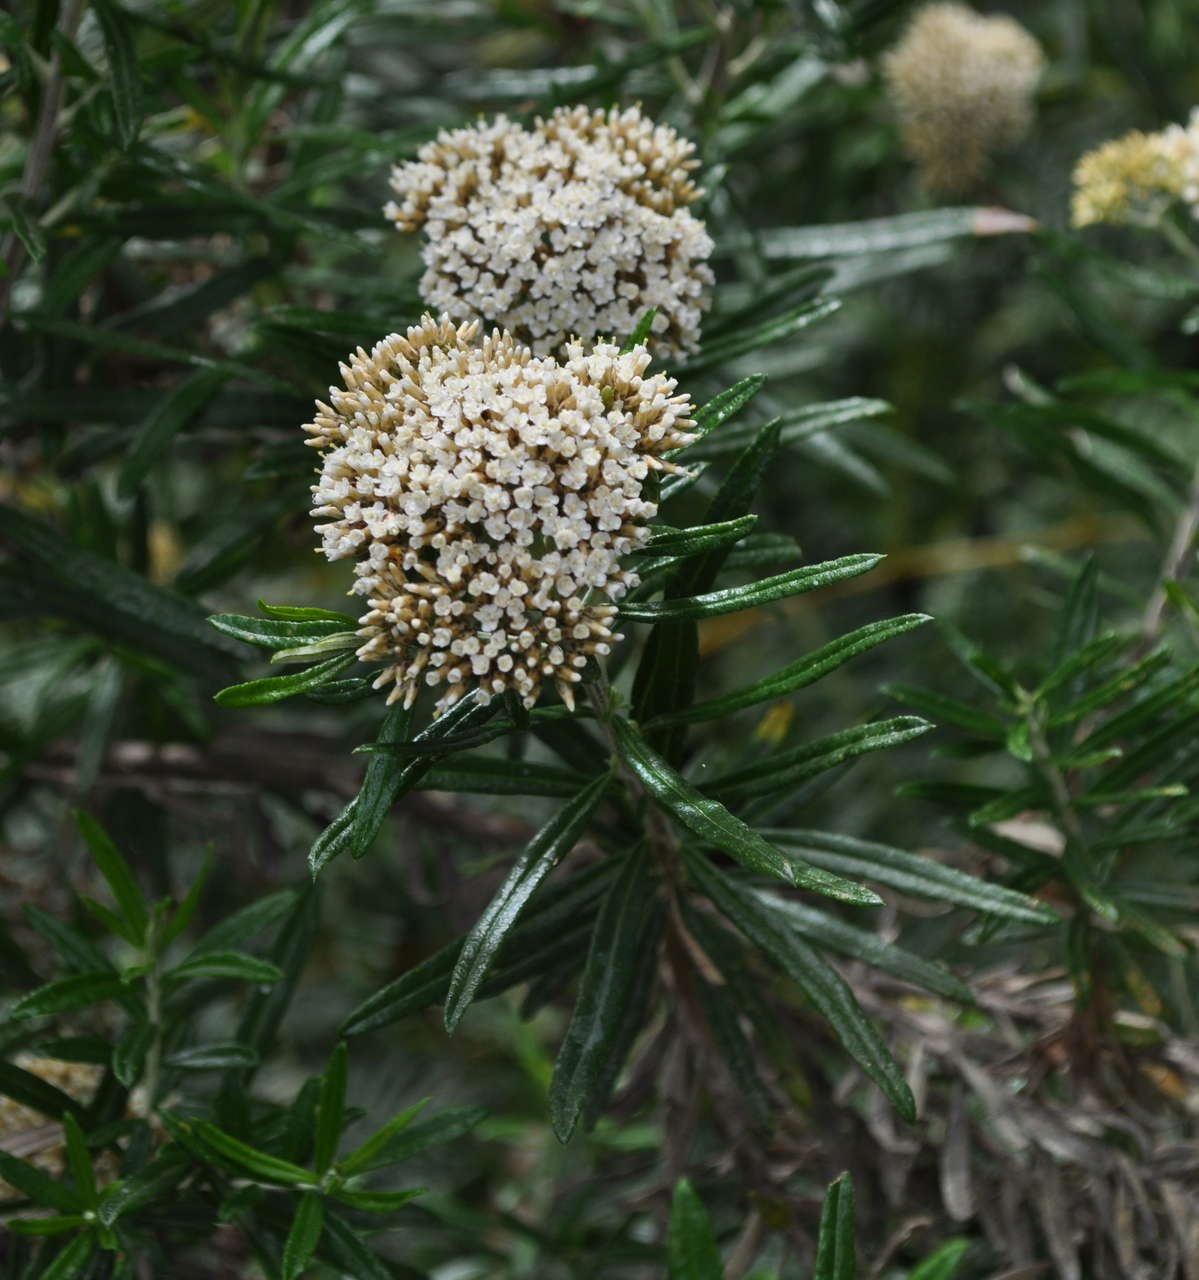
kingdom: Plantae
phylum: Tracheophyta
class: Magnoliopsida
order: Asterales
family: Asteraceae
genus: Ozothamnus
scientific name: Ozothamnus ferrugineus
